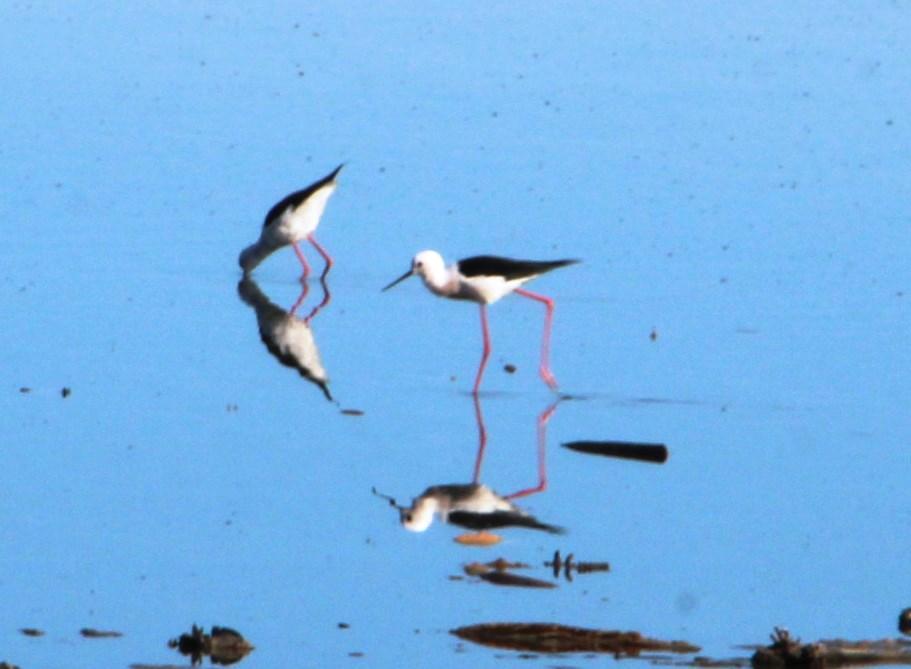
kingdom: Animalia
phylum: Chordata
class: Aves
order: Charadriiformes
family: Recurvirostridae
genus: Himantopus
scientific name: Himantopus himantopus
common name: Black-winged stilt
